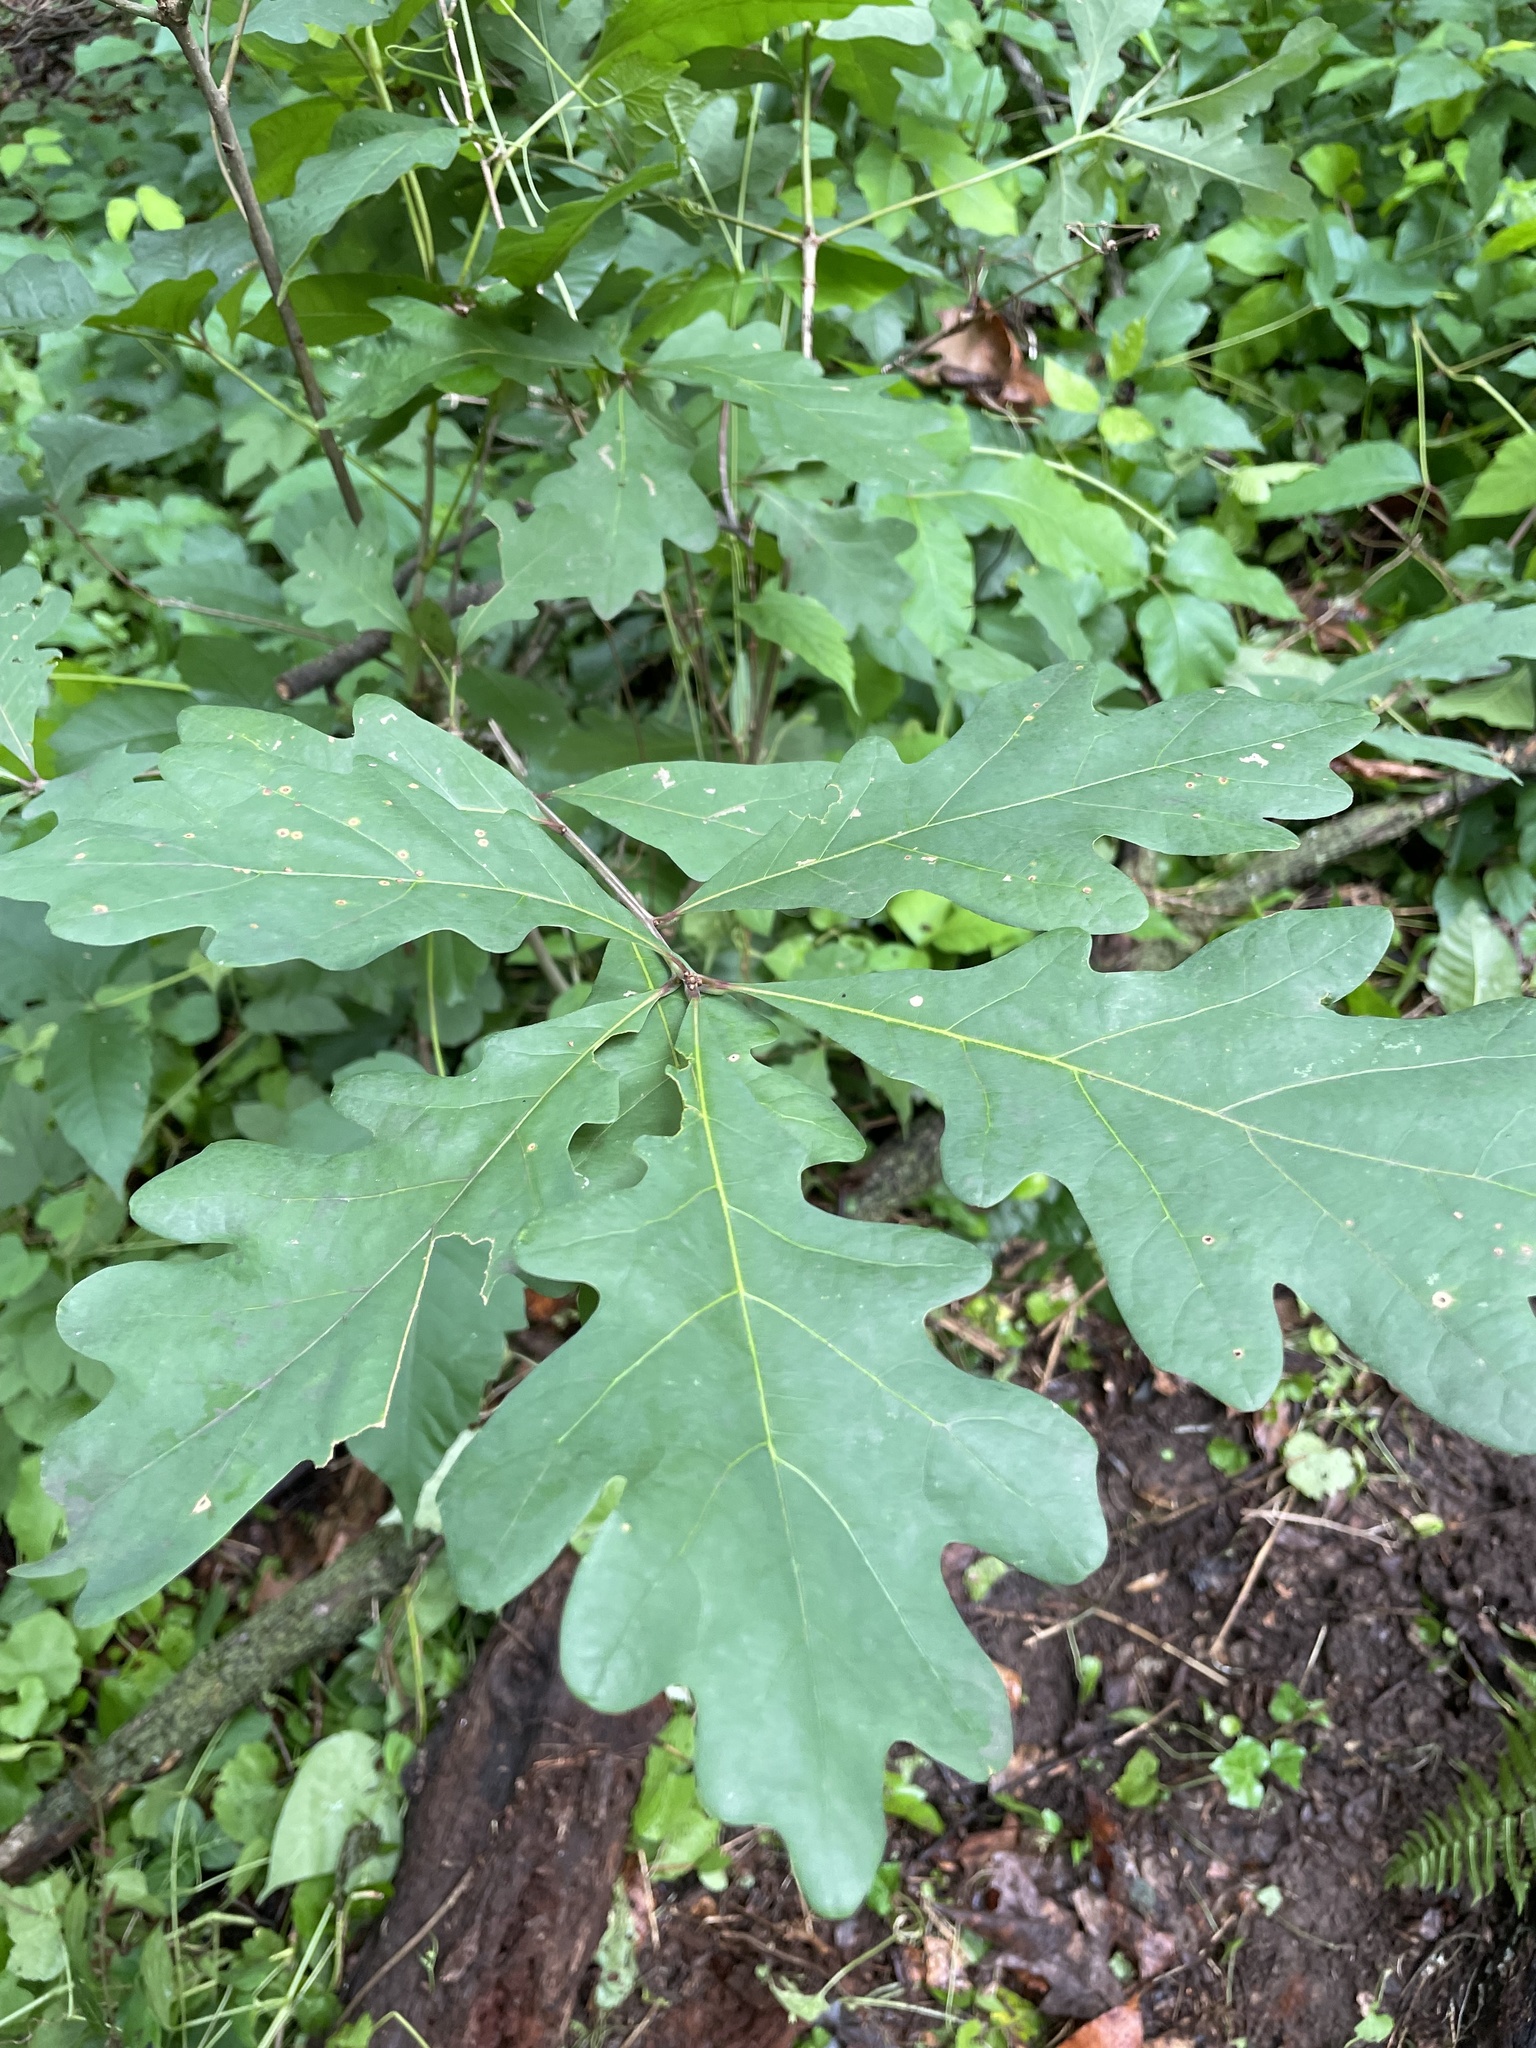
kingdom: Plantae
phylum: Tracheophyta
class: Magnoliopsida
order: Fagales
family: Fagaceae
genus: Quercus
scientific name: Quercus alba
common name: White oak
